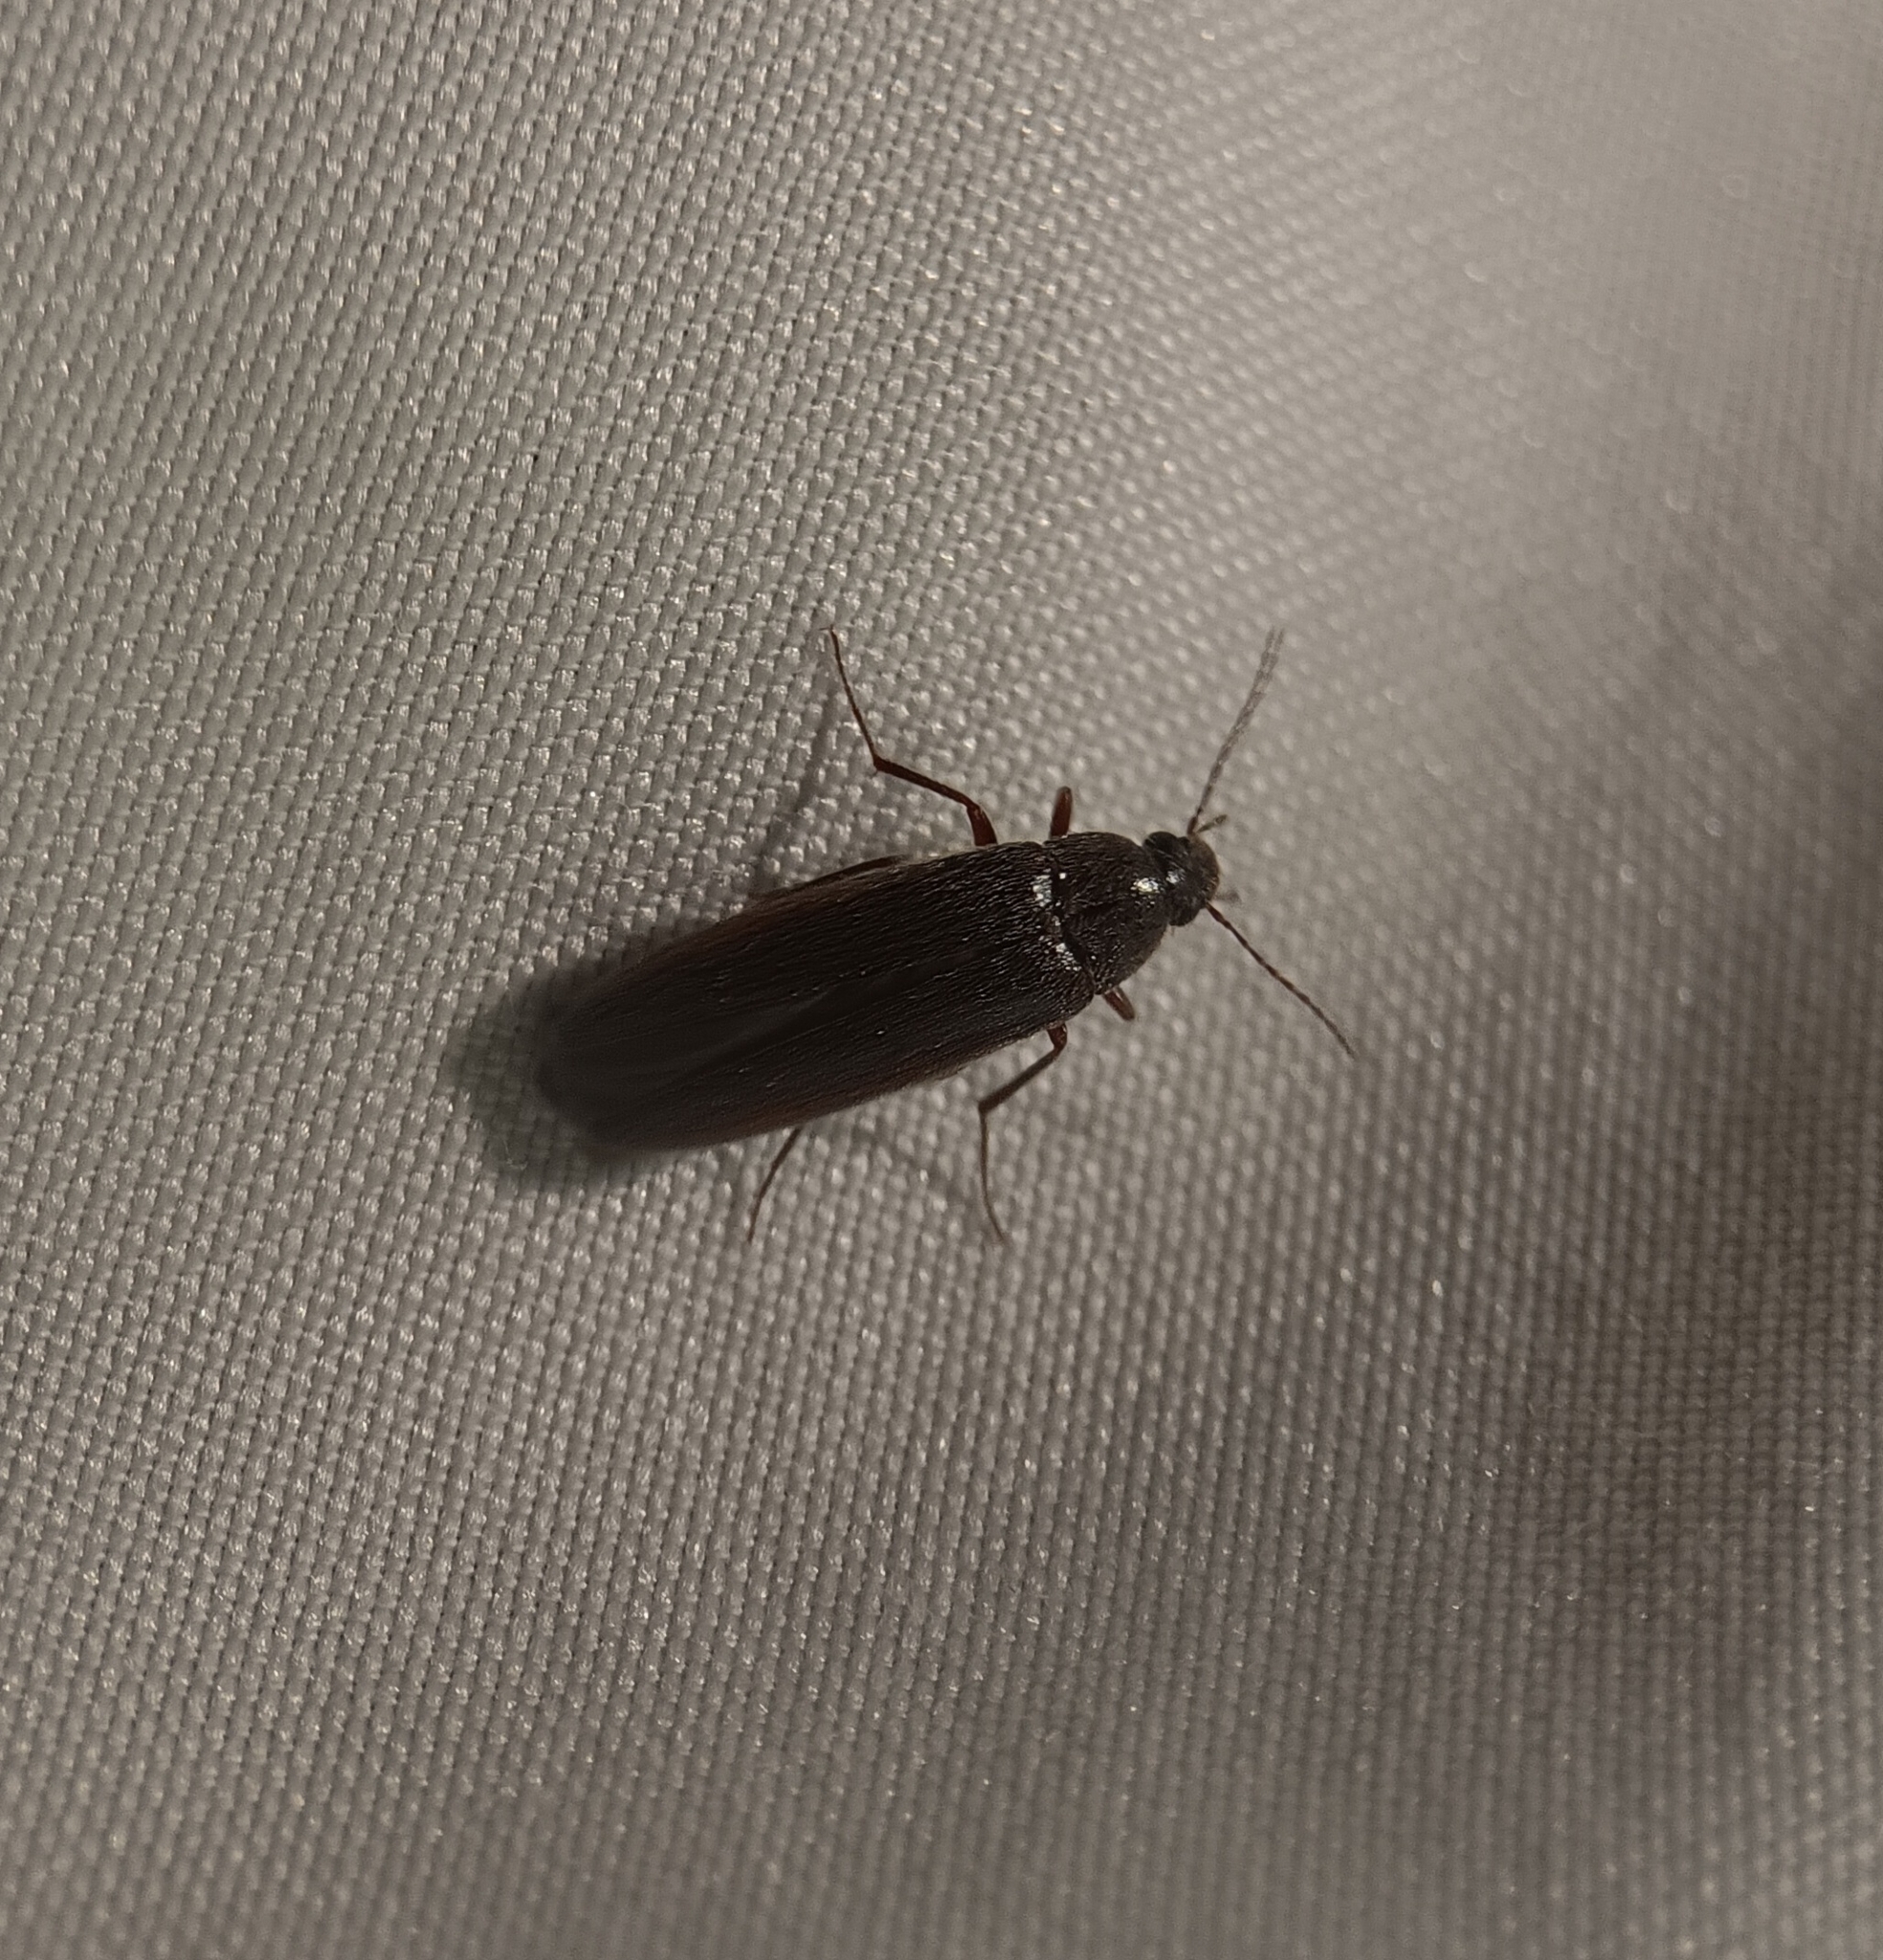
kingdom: Animalia
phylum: Arthropoda
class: Insecta
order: Coleoptera
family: Synchroidae
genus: Synchroa
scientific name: Synchroa punctata
